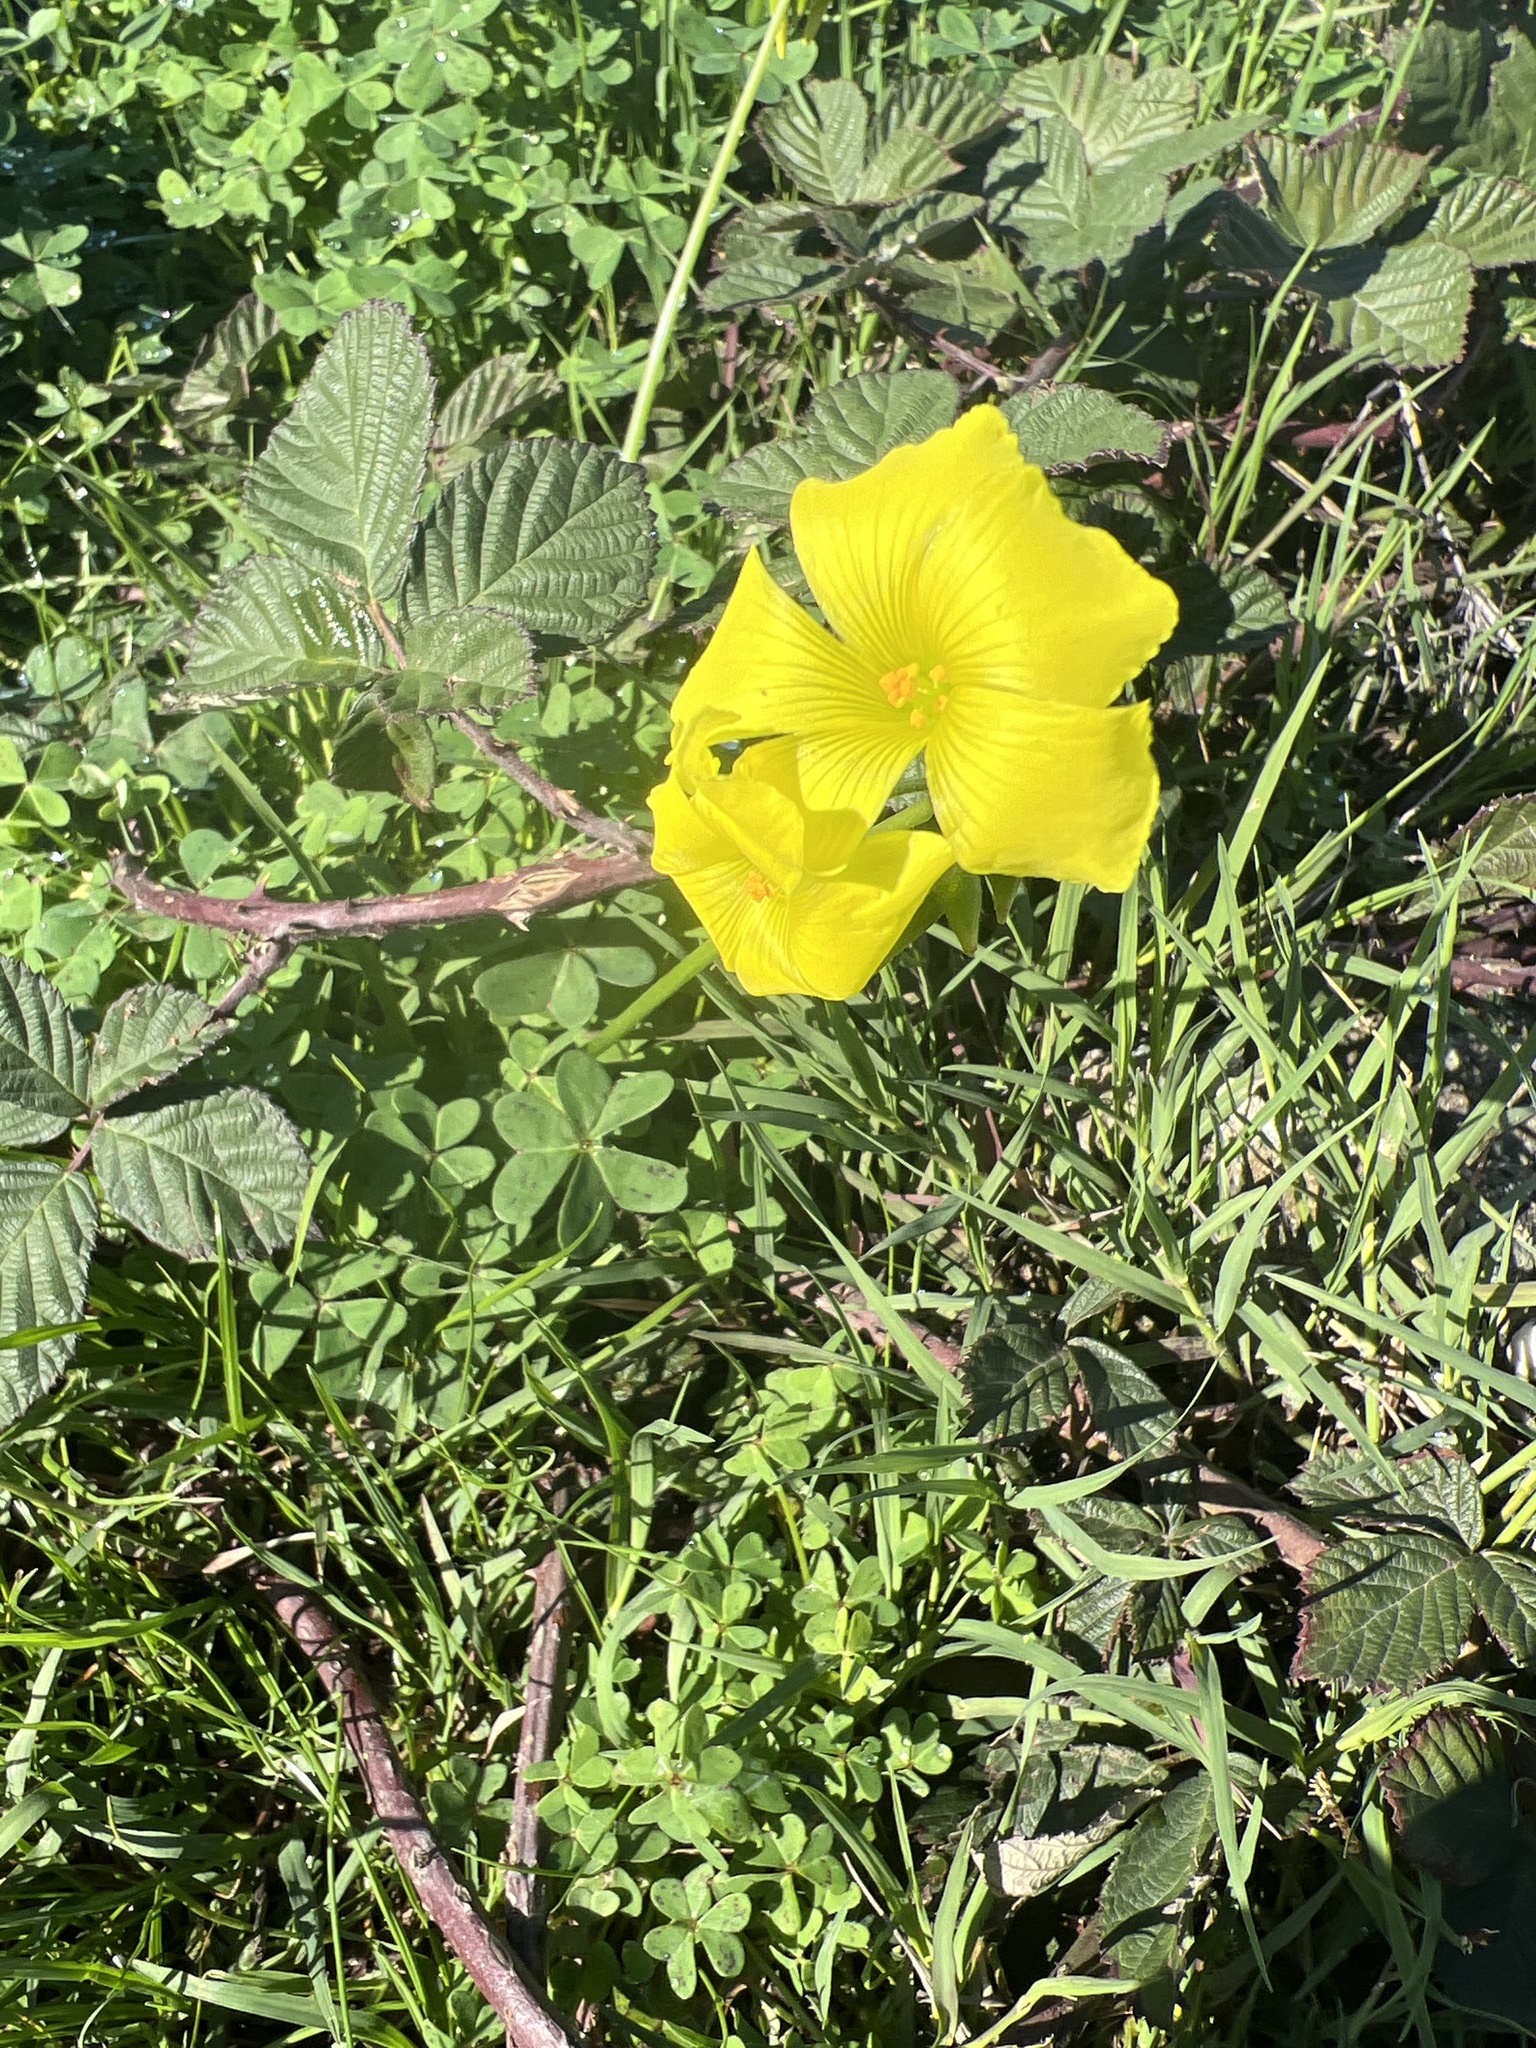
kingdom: Plantae
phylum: Tracheophyta
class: Magnoliopsida
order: Oxalidales
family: Oxalidaceae
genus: Oxalis
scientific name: Oxalis pes-caprae
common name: Bermuda-buttercup
